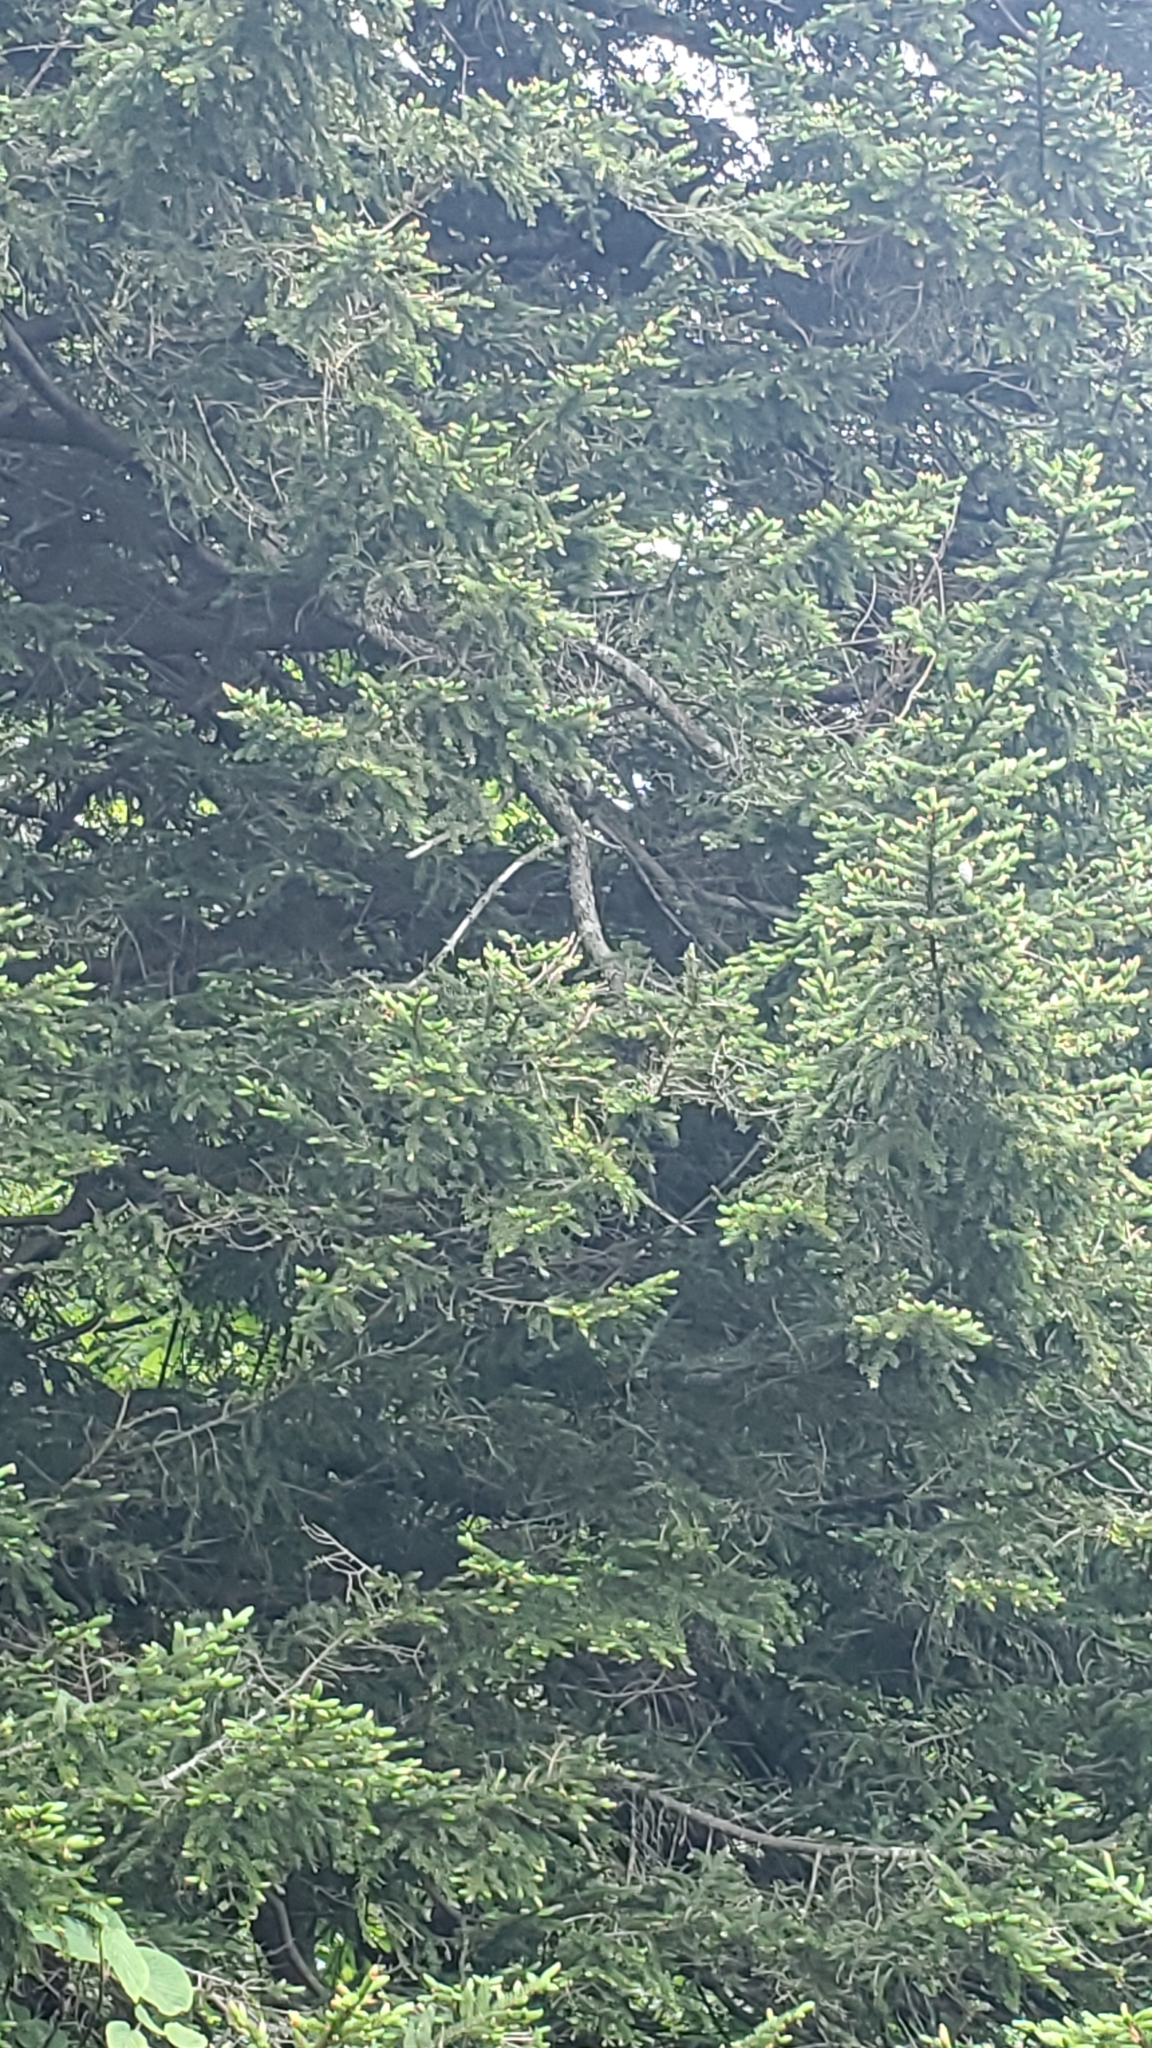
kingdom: Plantae
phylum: Tracheophyta
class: Pinopsida
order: Pinales
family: Pinaceae
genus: Picea
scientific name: Picea rubens
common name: Red spruce
